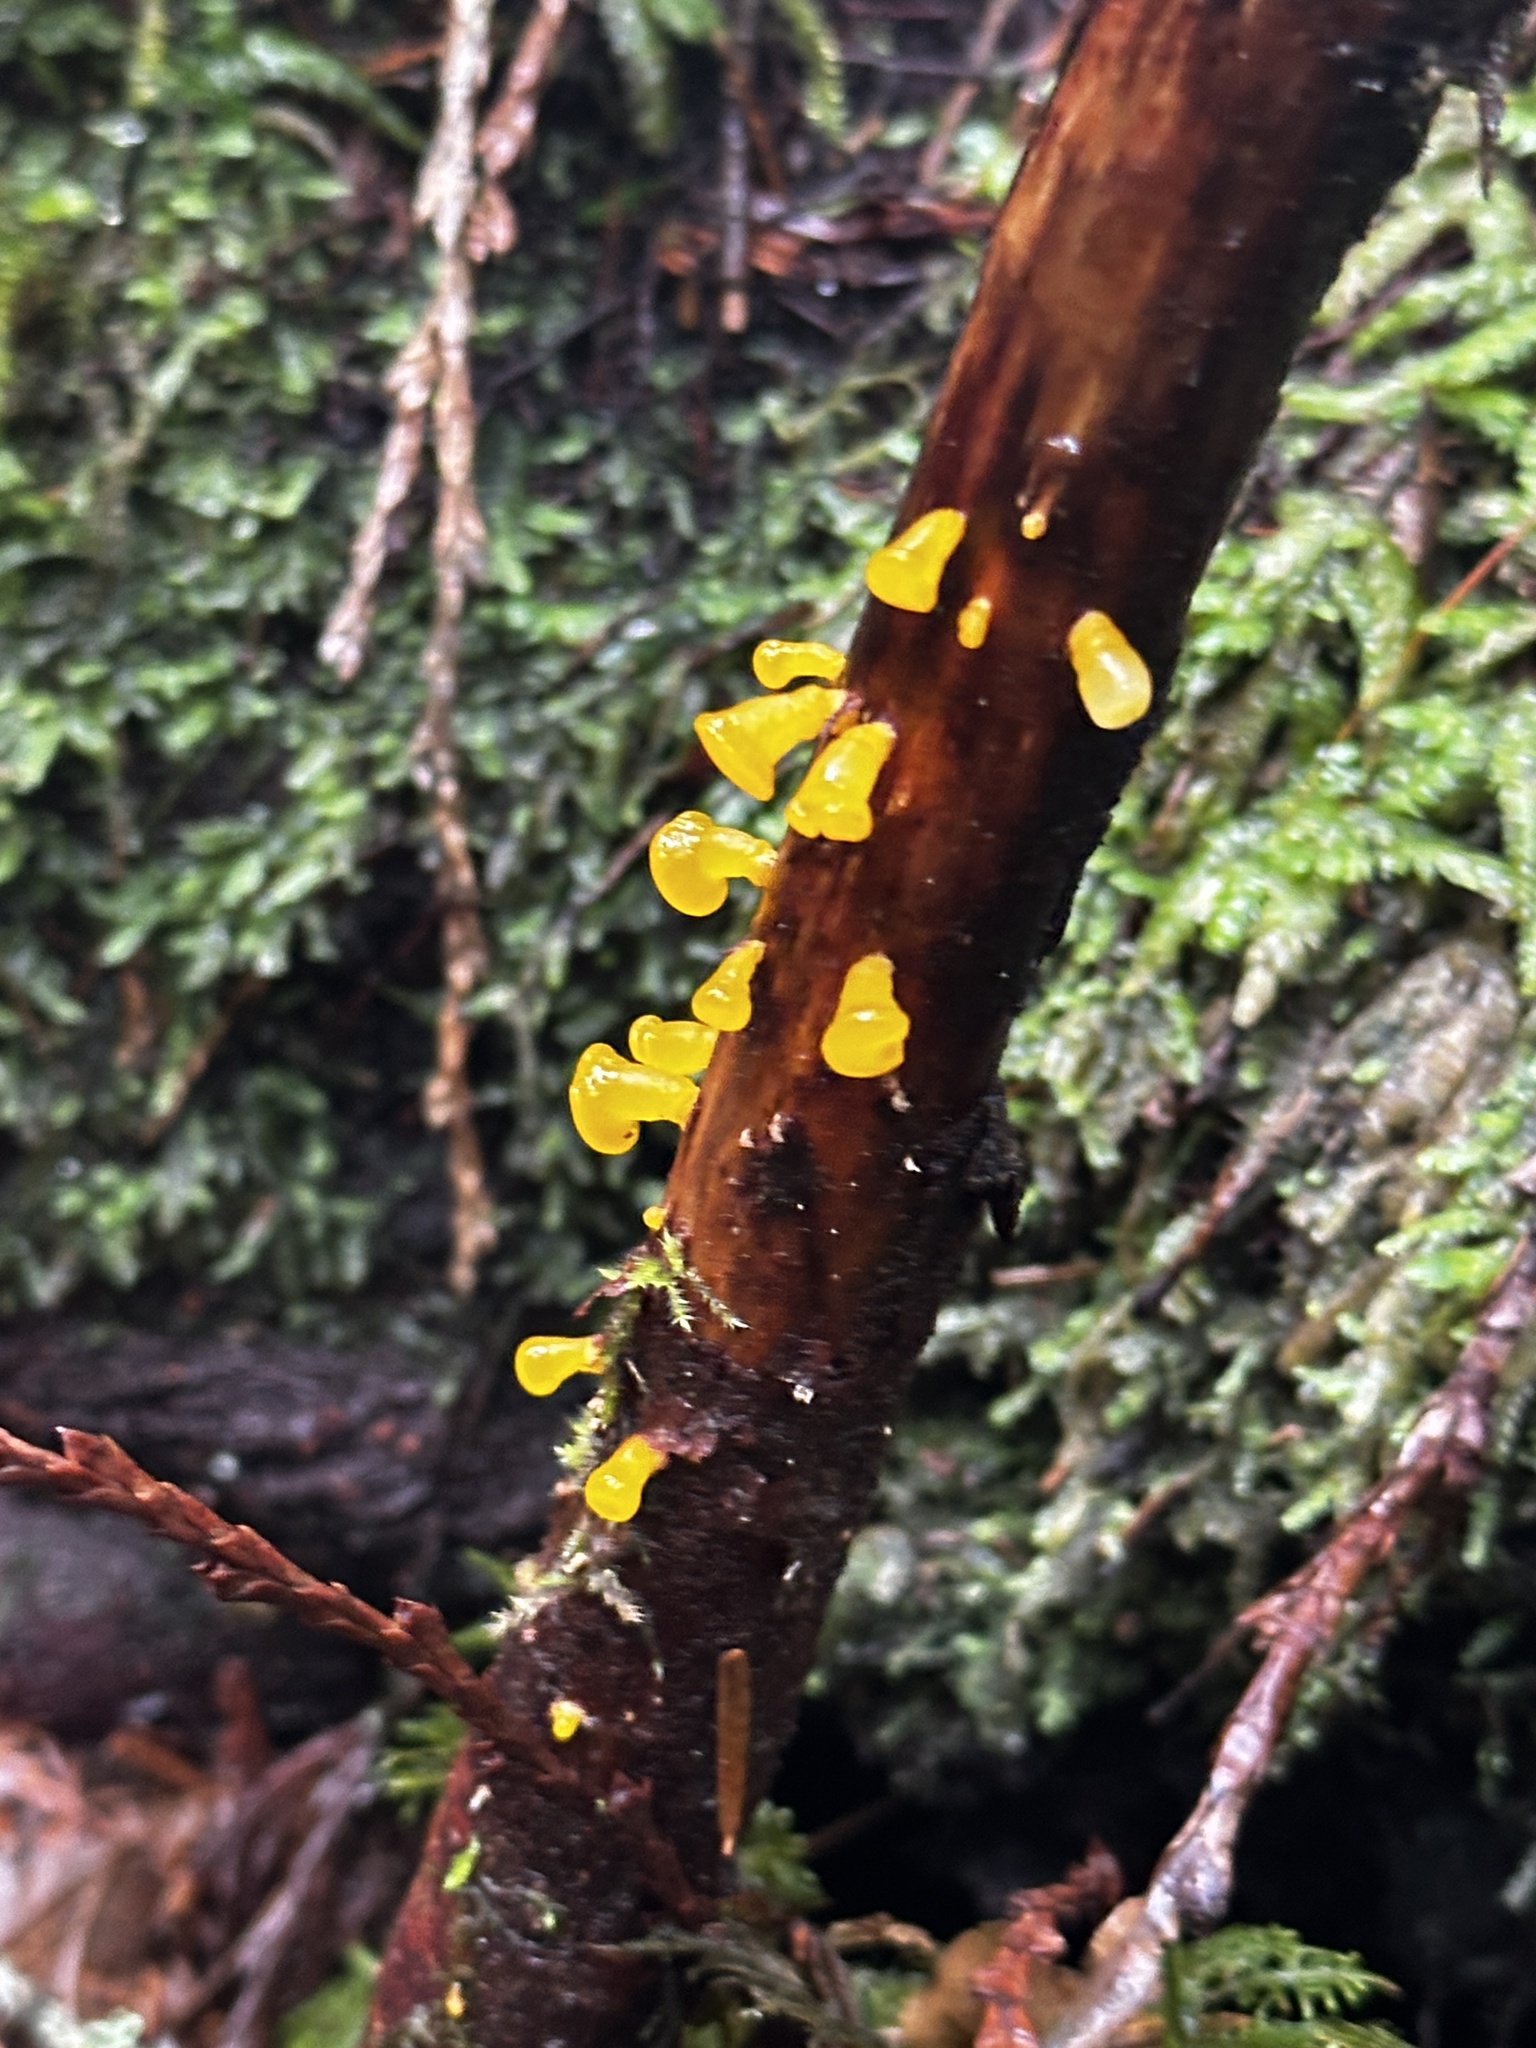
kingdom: Fungi
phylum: Basidiomycota
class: Dacrymycetes
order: Dacrymycetales
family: Dacrymycetaceae
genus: Guepiniopsis
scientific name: Guepiniopsis alpina
